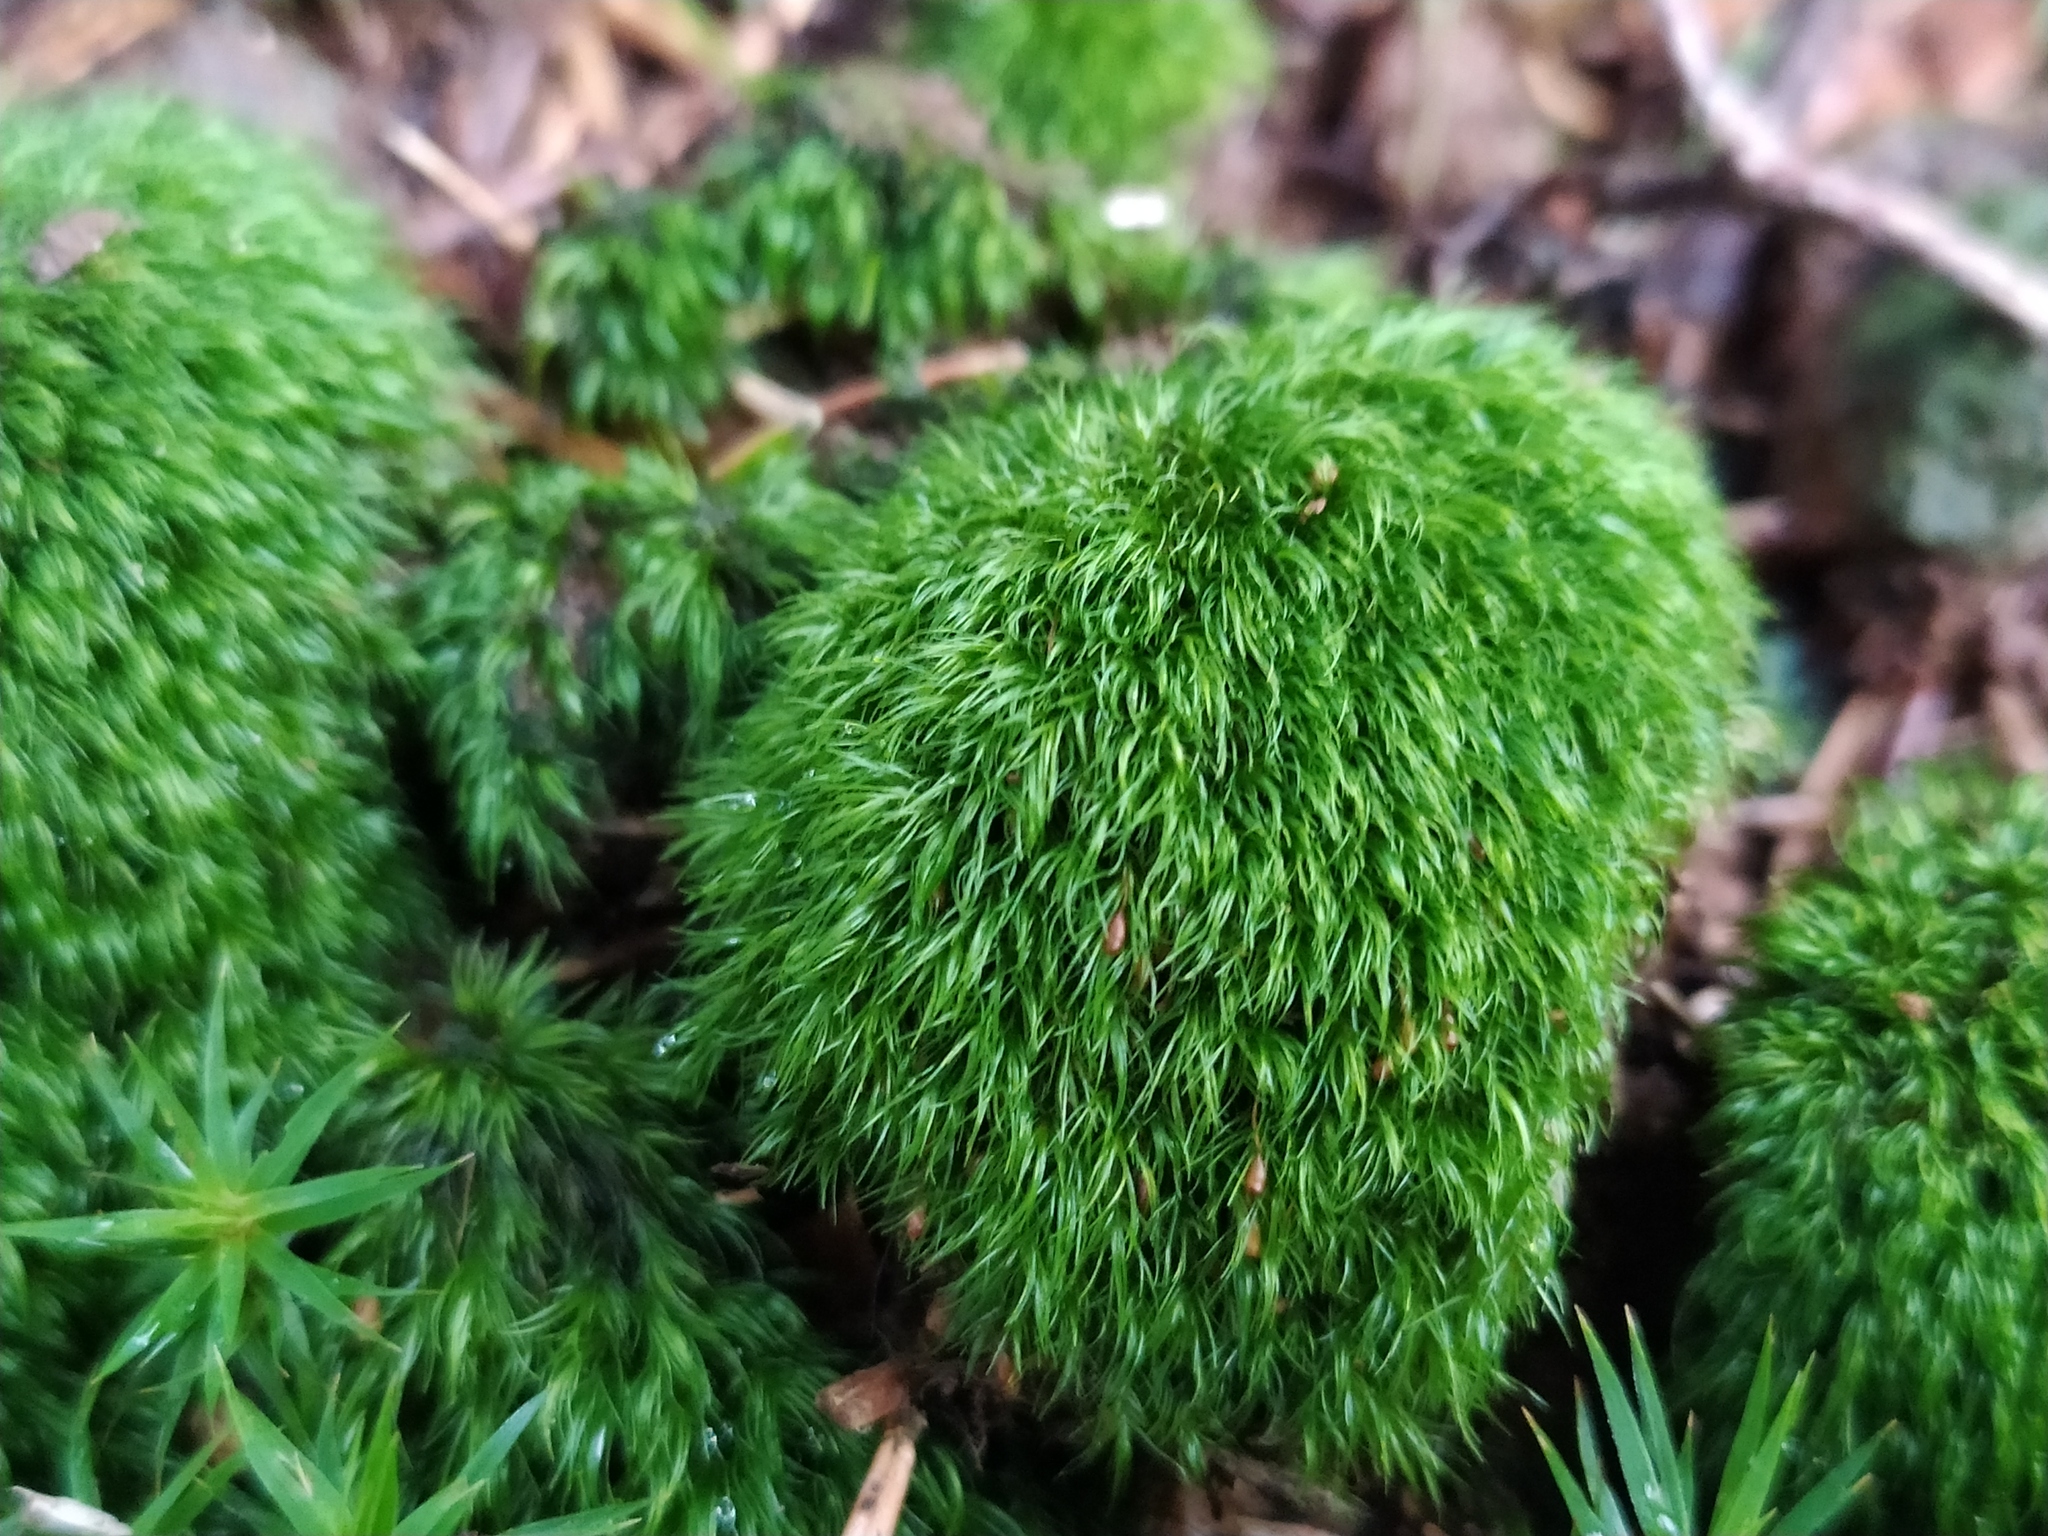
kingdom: Plantae
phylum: Bryophyta
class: Bryopsida
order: Dicranales
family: Dicranellaceae
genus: Dicranella
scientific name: Dicranella heteromalla
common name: Silky forklet moss
